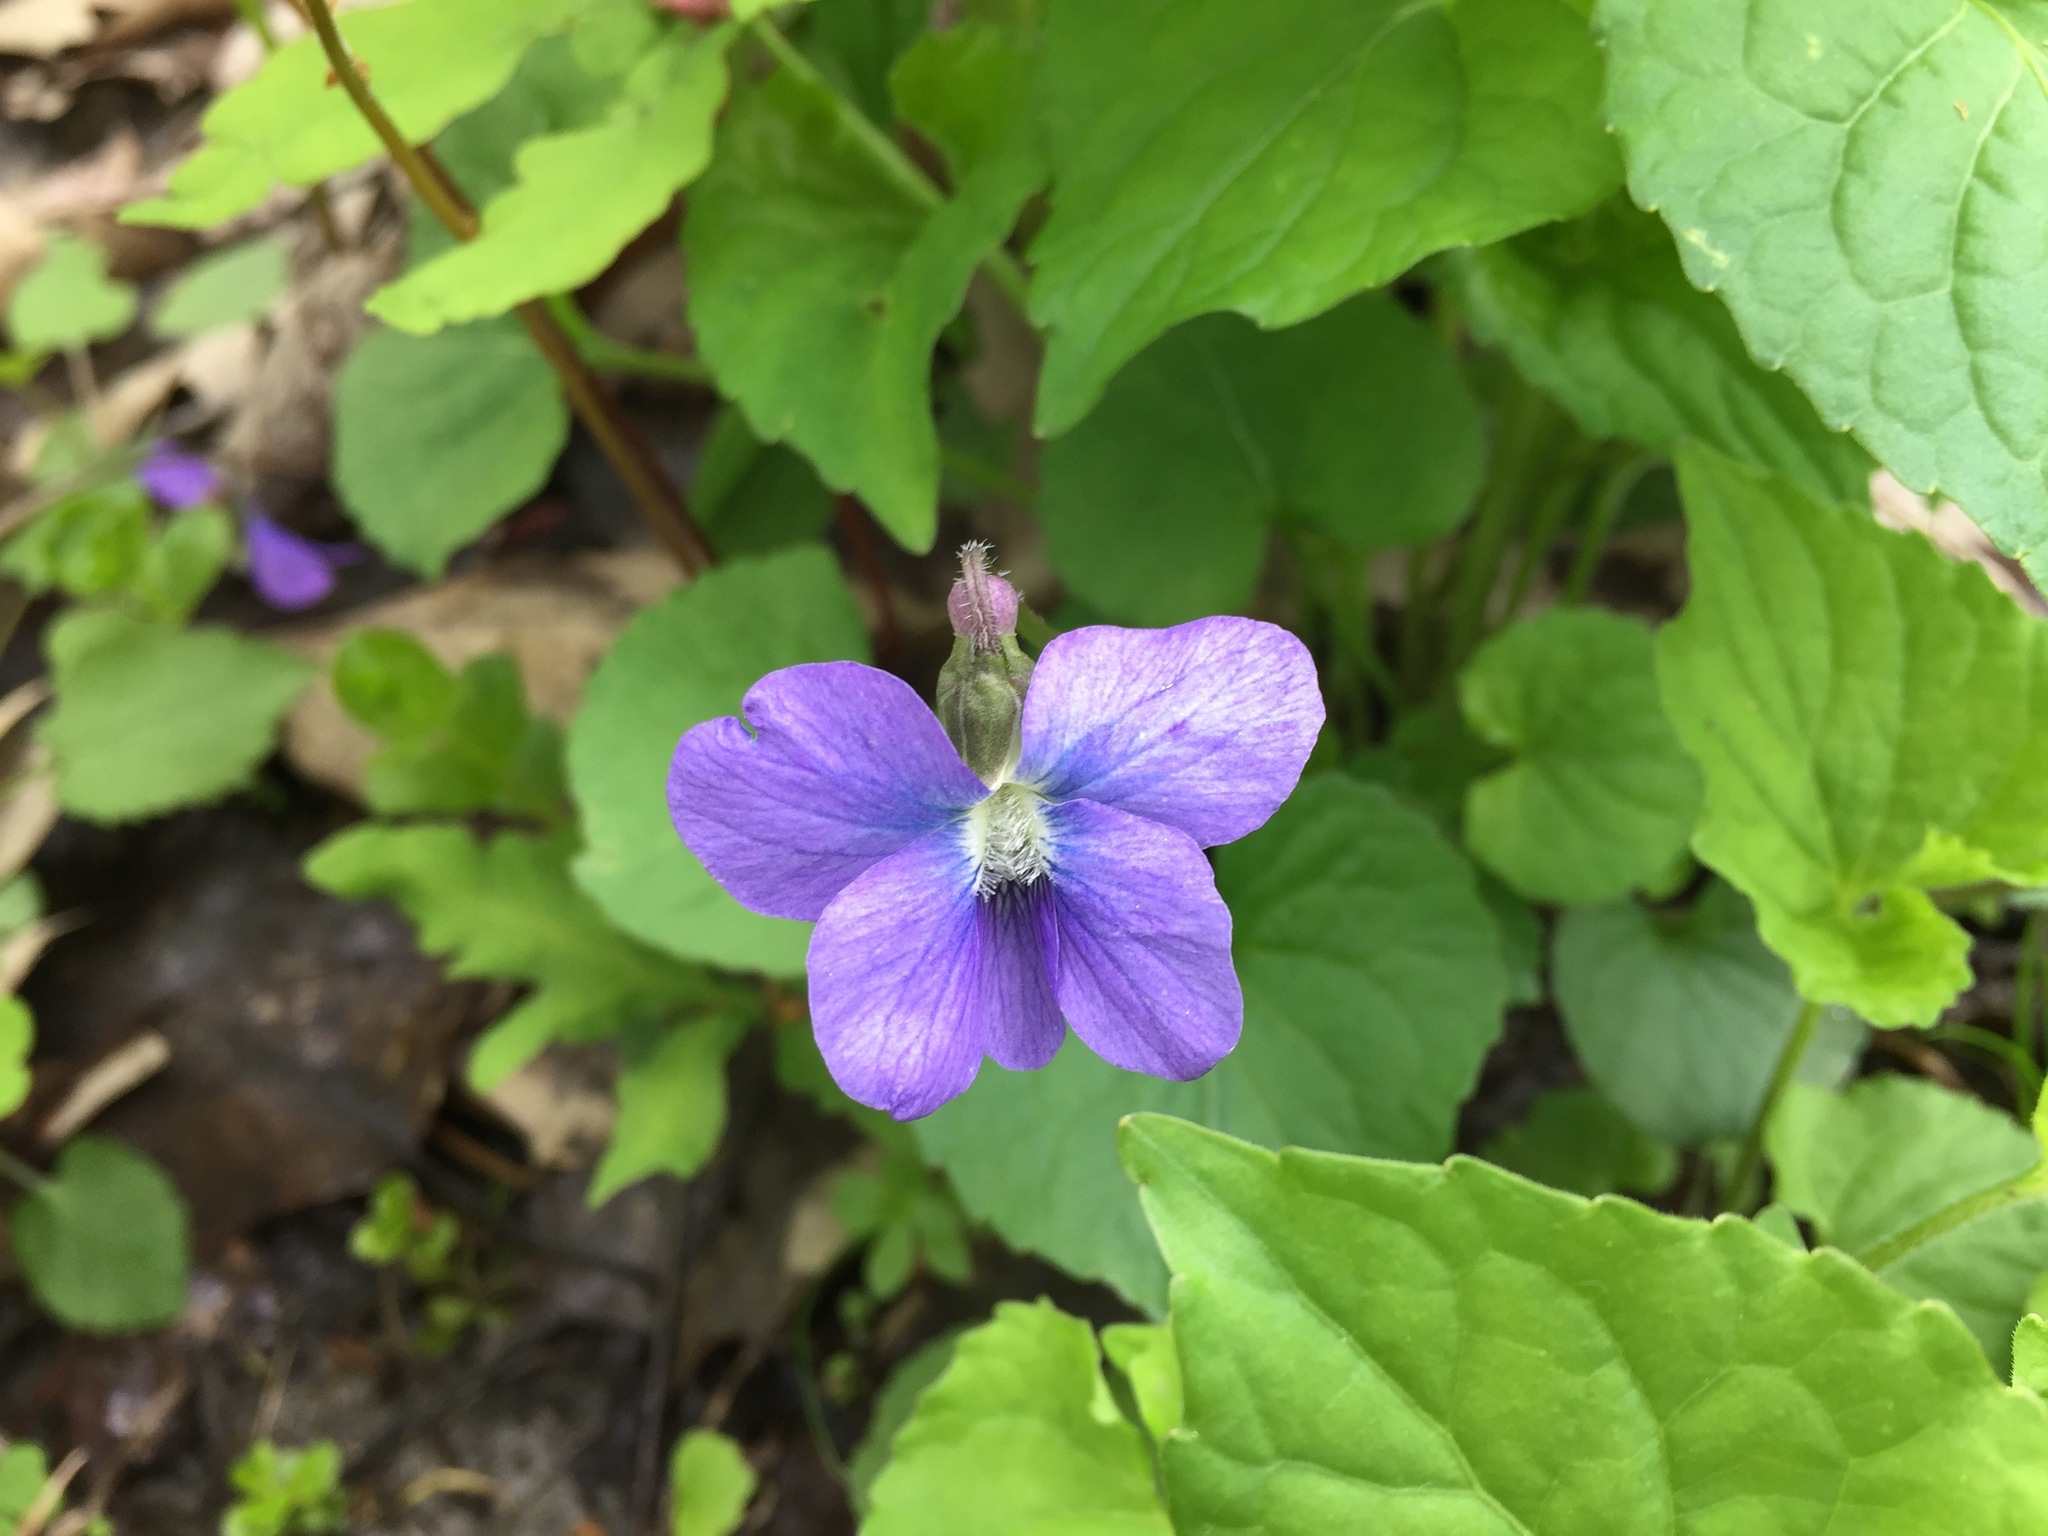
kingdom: Plantae
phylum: Tracheophyta
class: Magnoliopsida
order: Malpighiales
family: Violaceae
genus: Viola
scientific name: Viola sororia
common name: Dooryard violet
